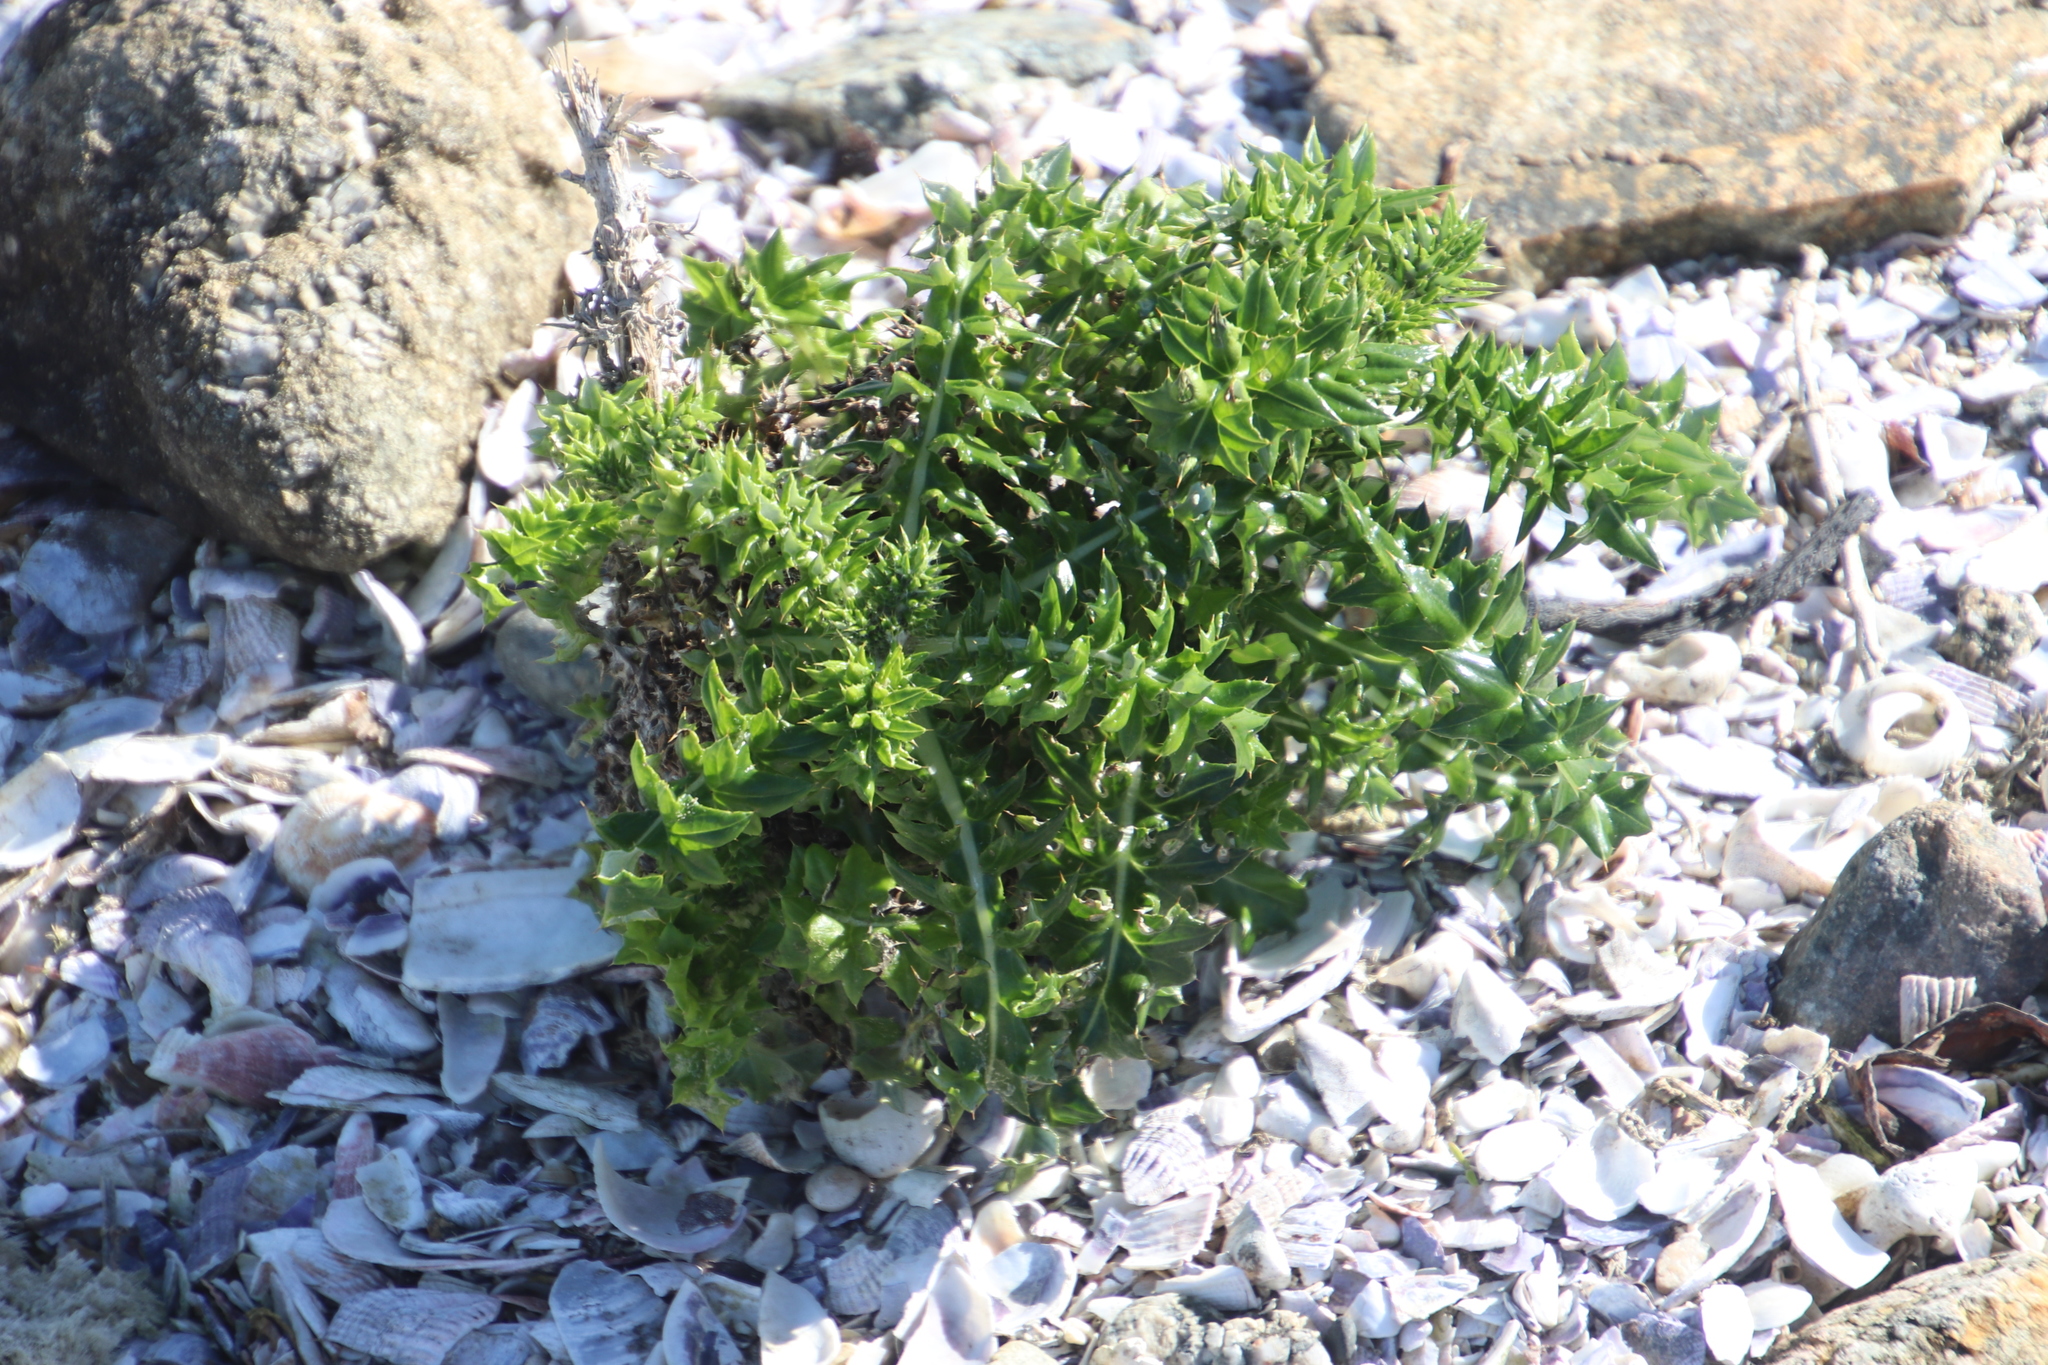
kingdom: Plantae
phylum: Tracheophyta
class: Magnoliopsida
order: Asterales
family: Asteraceae
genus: Berkheya
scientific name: Berkheya rigida
